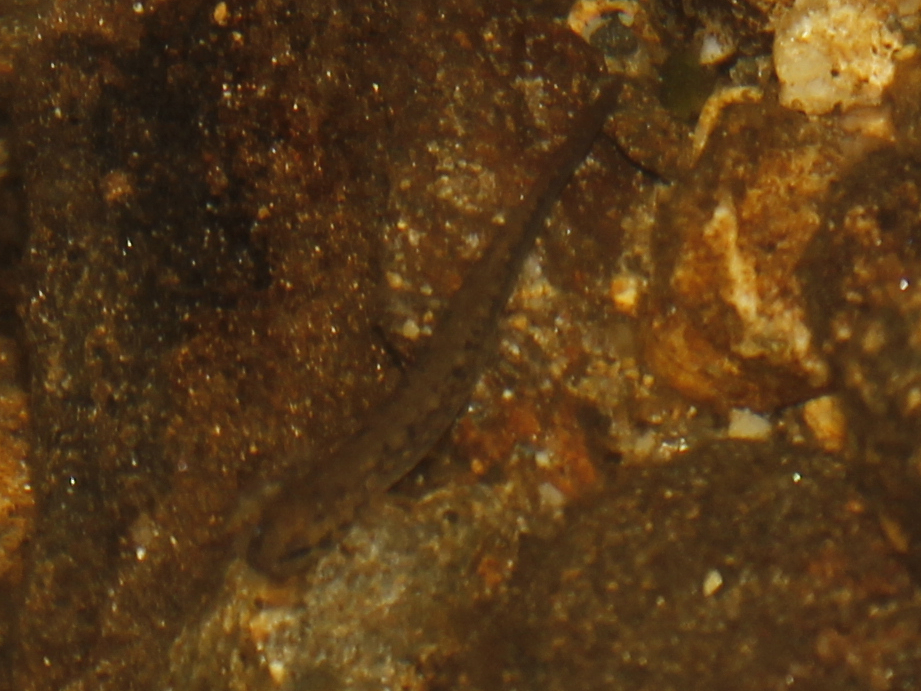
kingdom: Animalia
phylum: Chordata
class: Amphibia
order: Caudata
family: Plethodontidae
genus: Eurycea
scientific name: Eurycea bislineata
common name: Northern two-lined salamander
